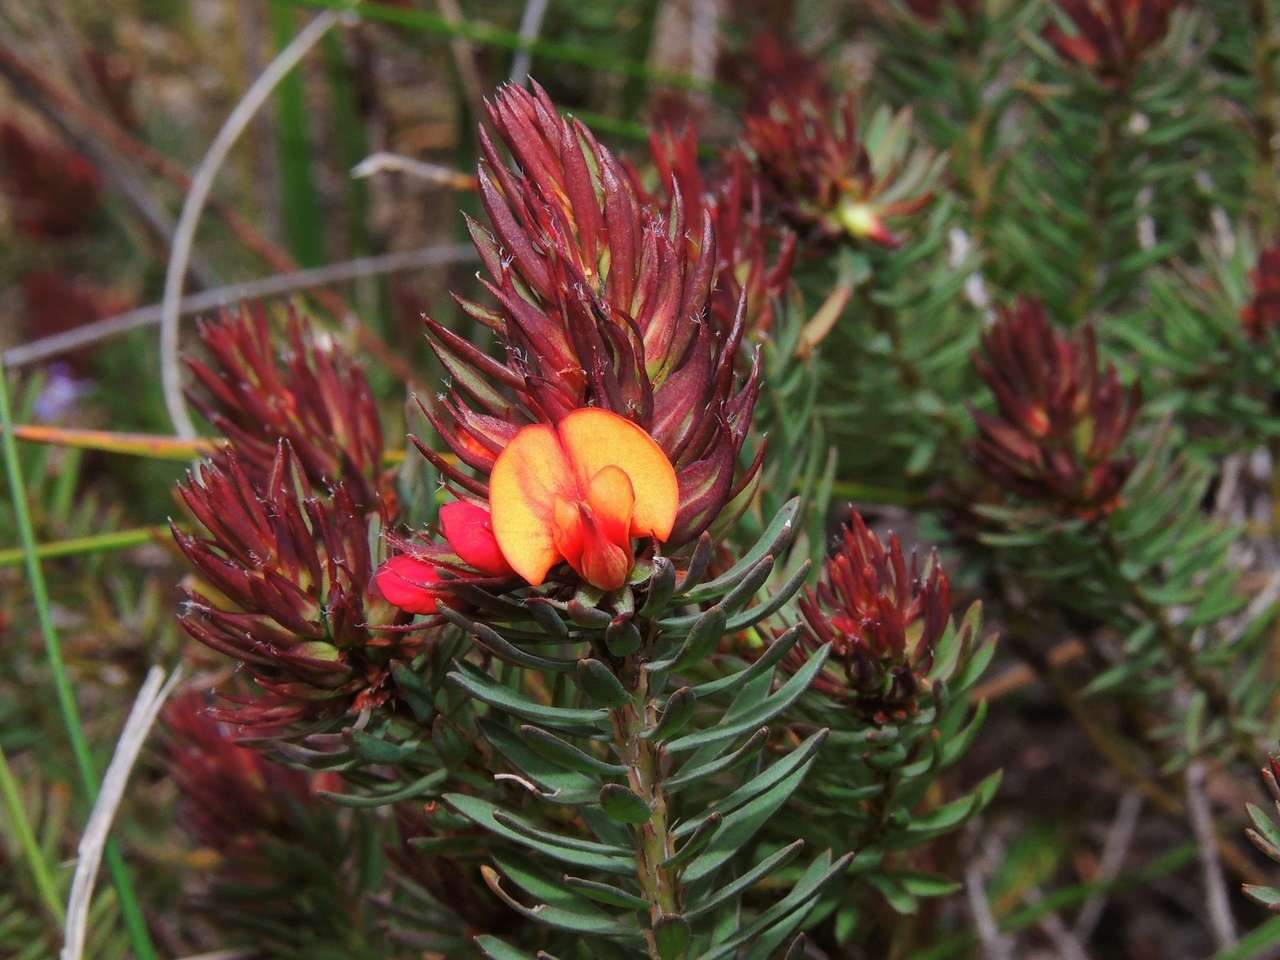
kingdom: Plantae
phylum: Tracheophyta
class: Magnoliopsida
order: Fabales
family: Fabaceae
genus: Pultenaea
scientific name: Pultenaea humilis
